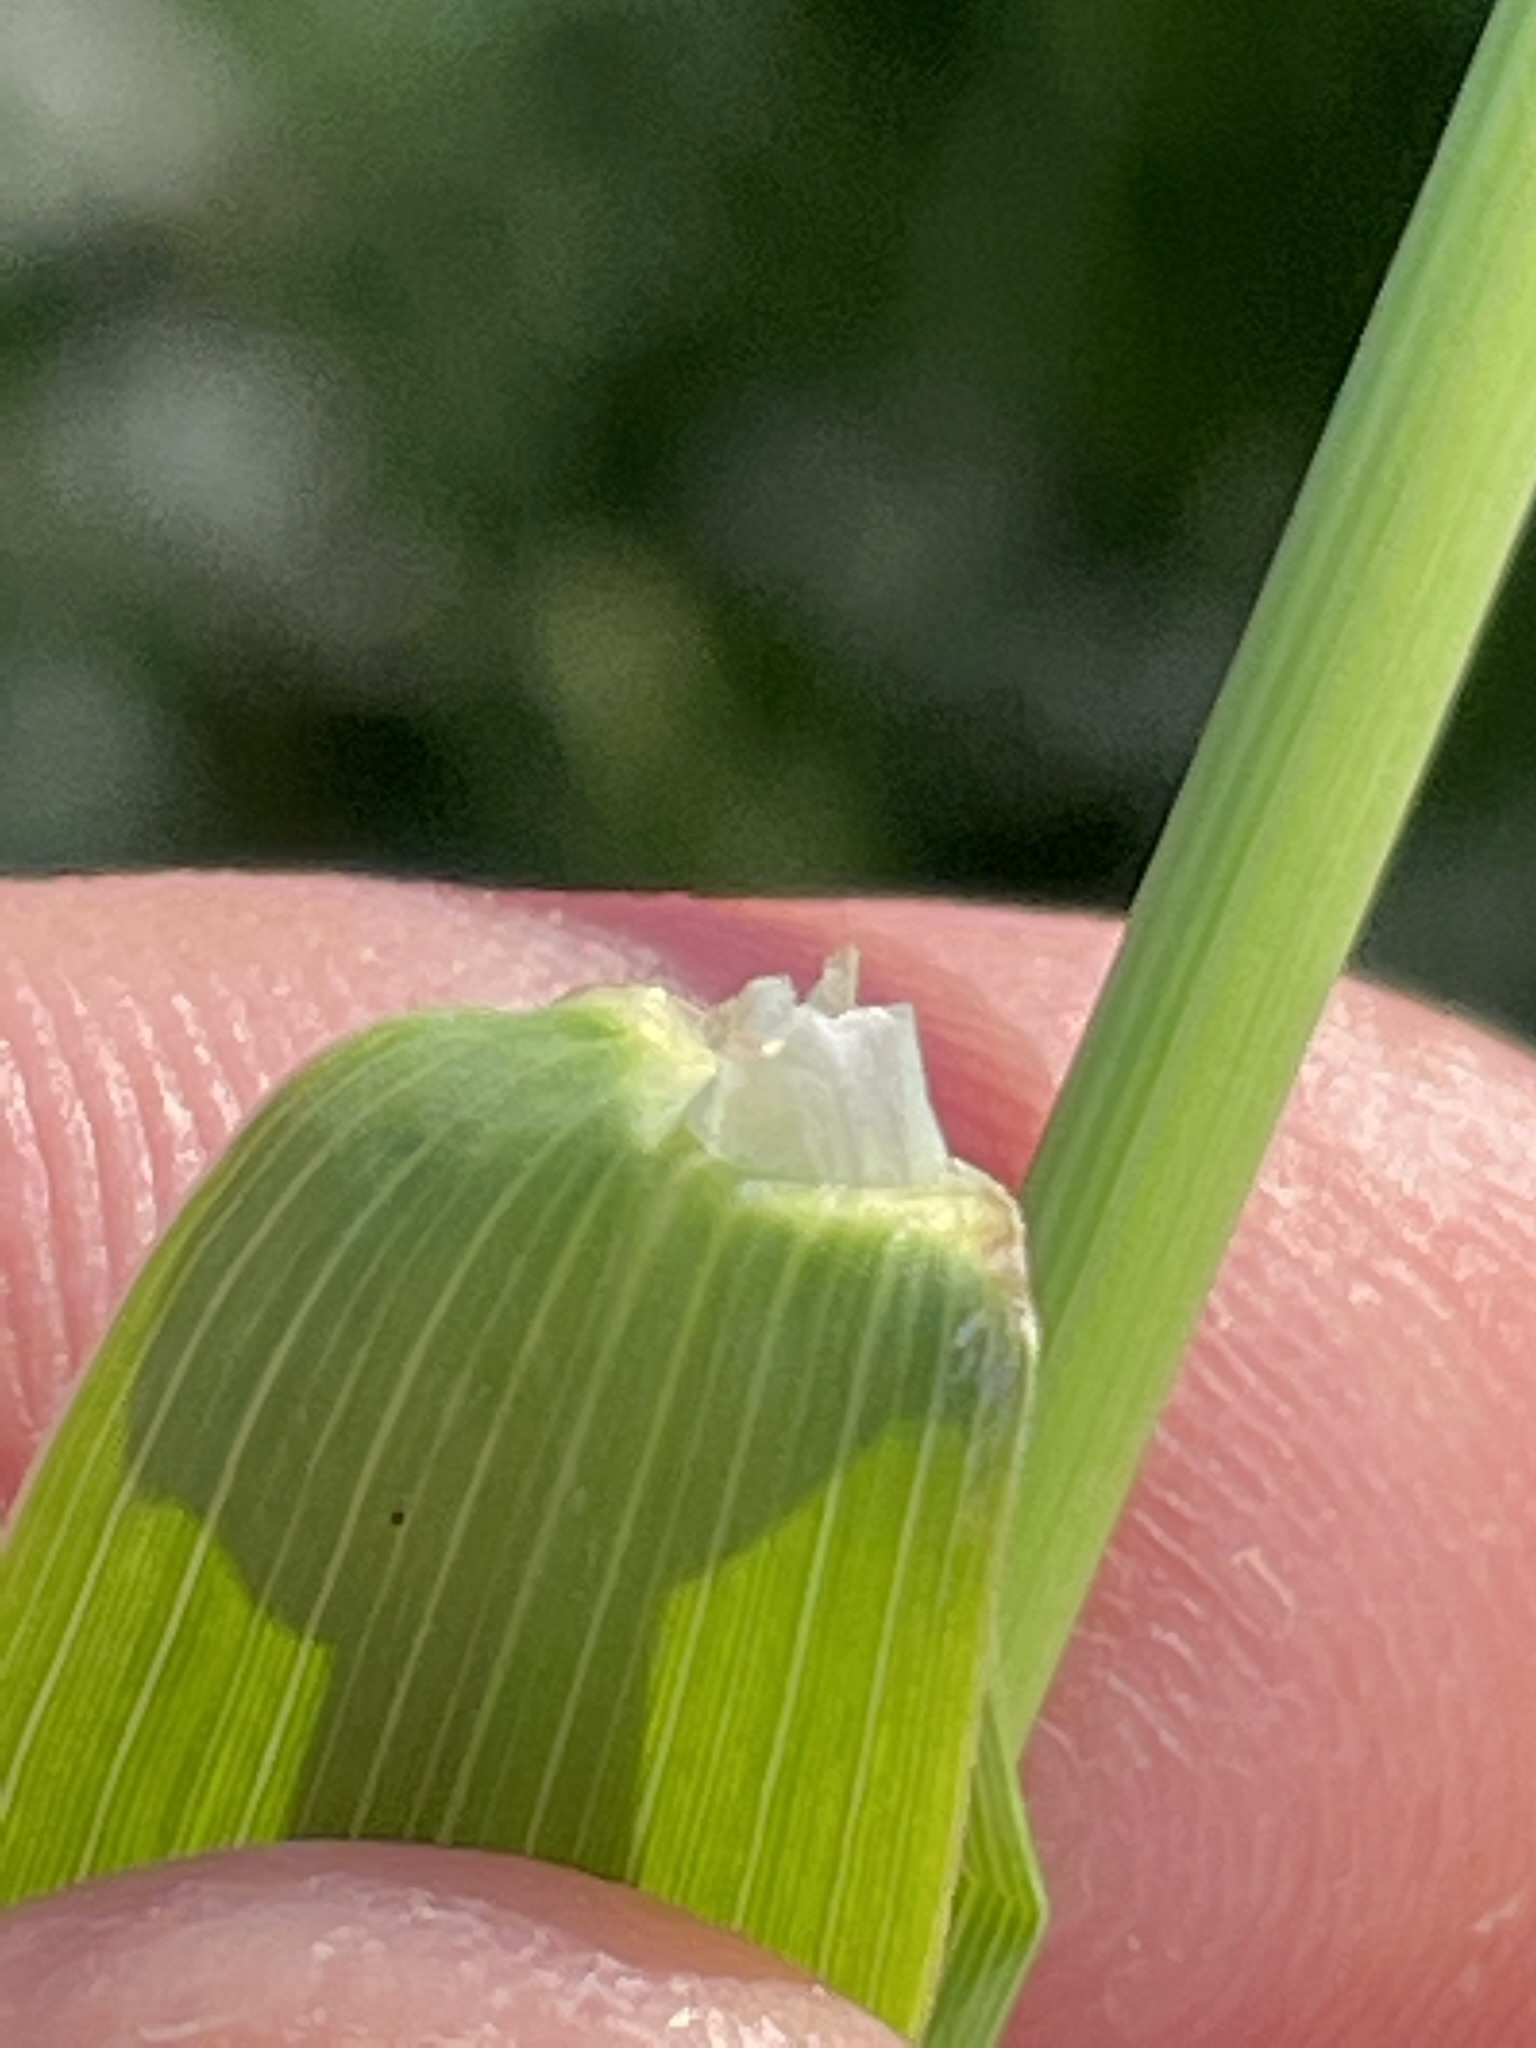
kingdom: Plantae
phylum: Tracheophyta
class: Liliopsida
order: Poales
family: Poaceae
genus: Phleum
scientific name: Phleum pratense
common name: Timothy grass
